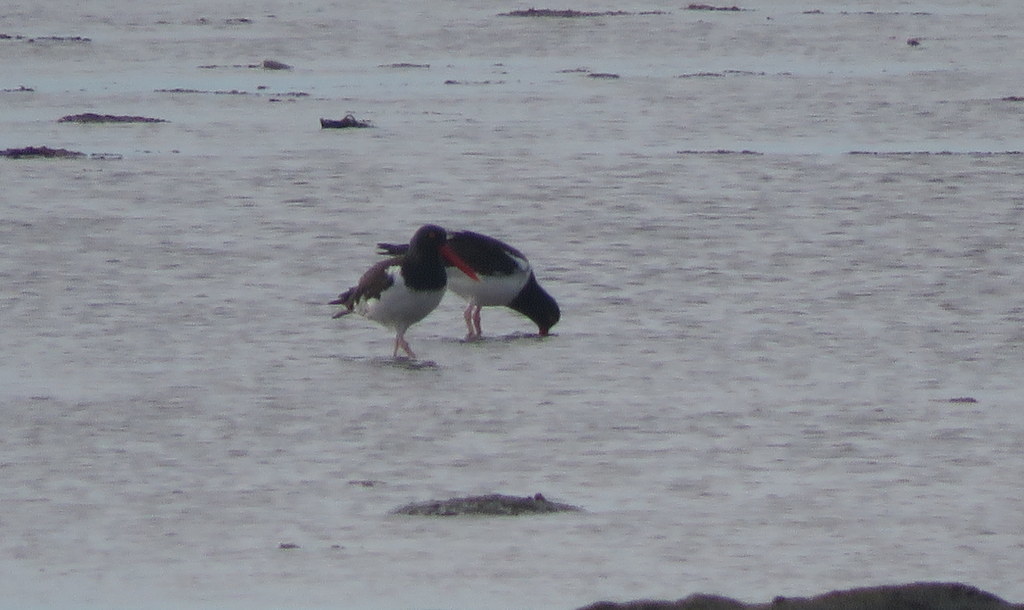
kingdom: Animalia
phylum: Chordata
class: Aves
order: Charadriiformes
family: Haematopodidae
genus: Haematopus
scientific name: Haematopus palliatus
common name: American oystercatcher
